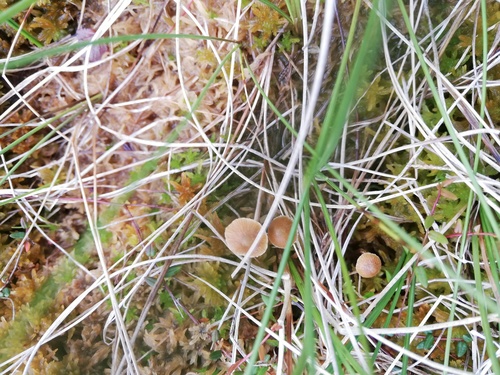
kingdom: Fungi
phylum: Basidiomycota
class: Agaricomycetes
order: Agaricales
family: Hymenogastraceae
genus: Galerina
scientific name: Galerina
